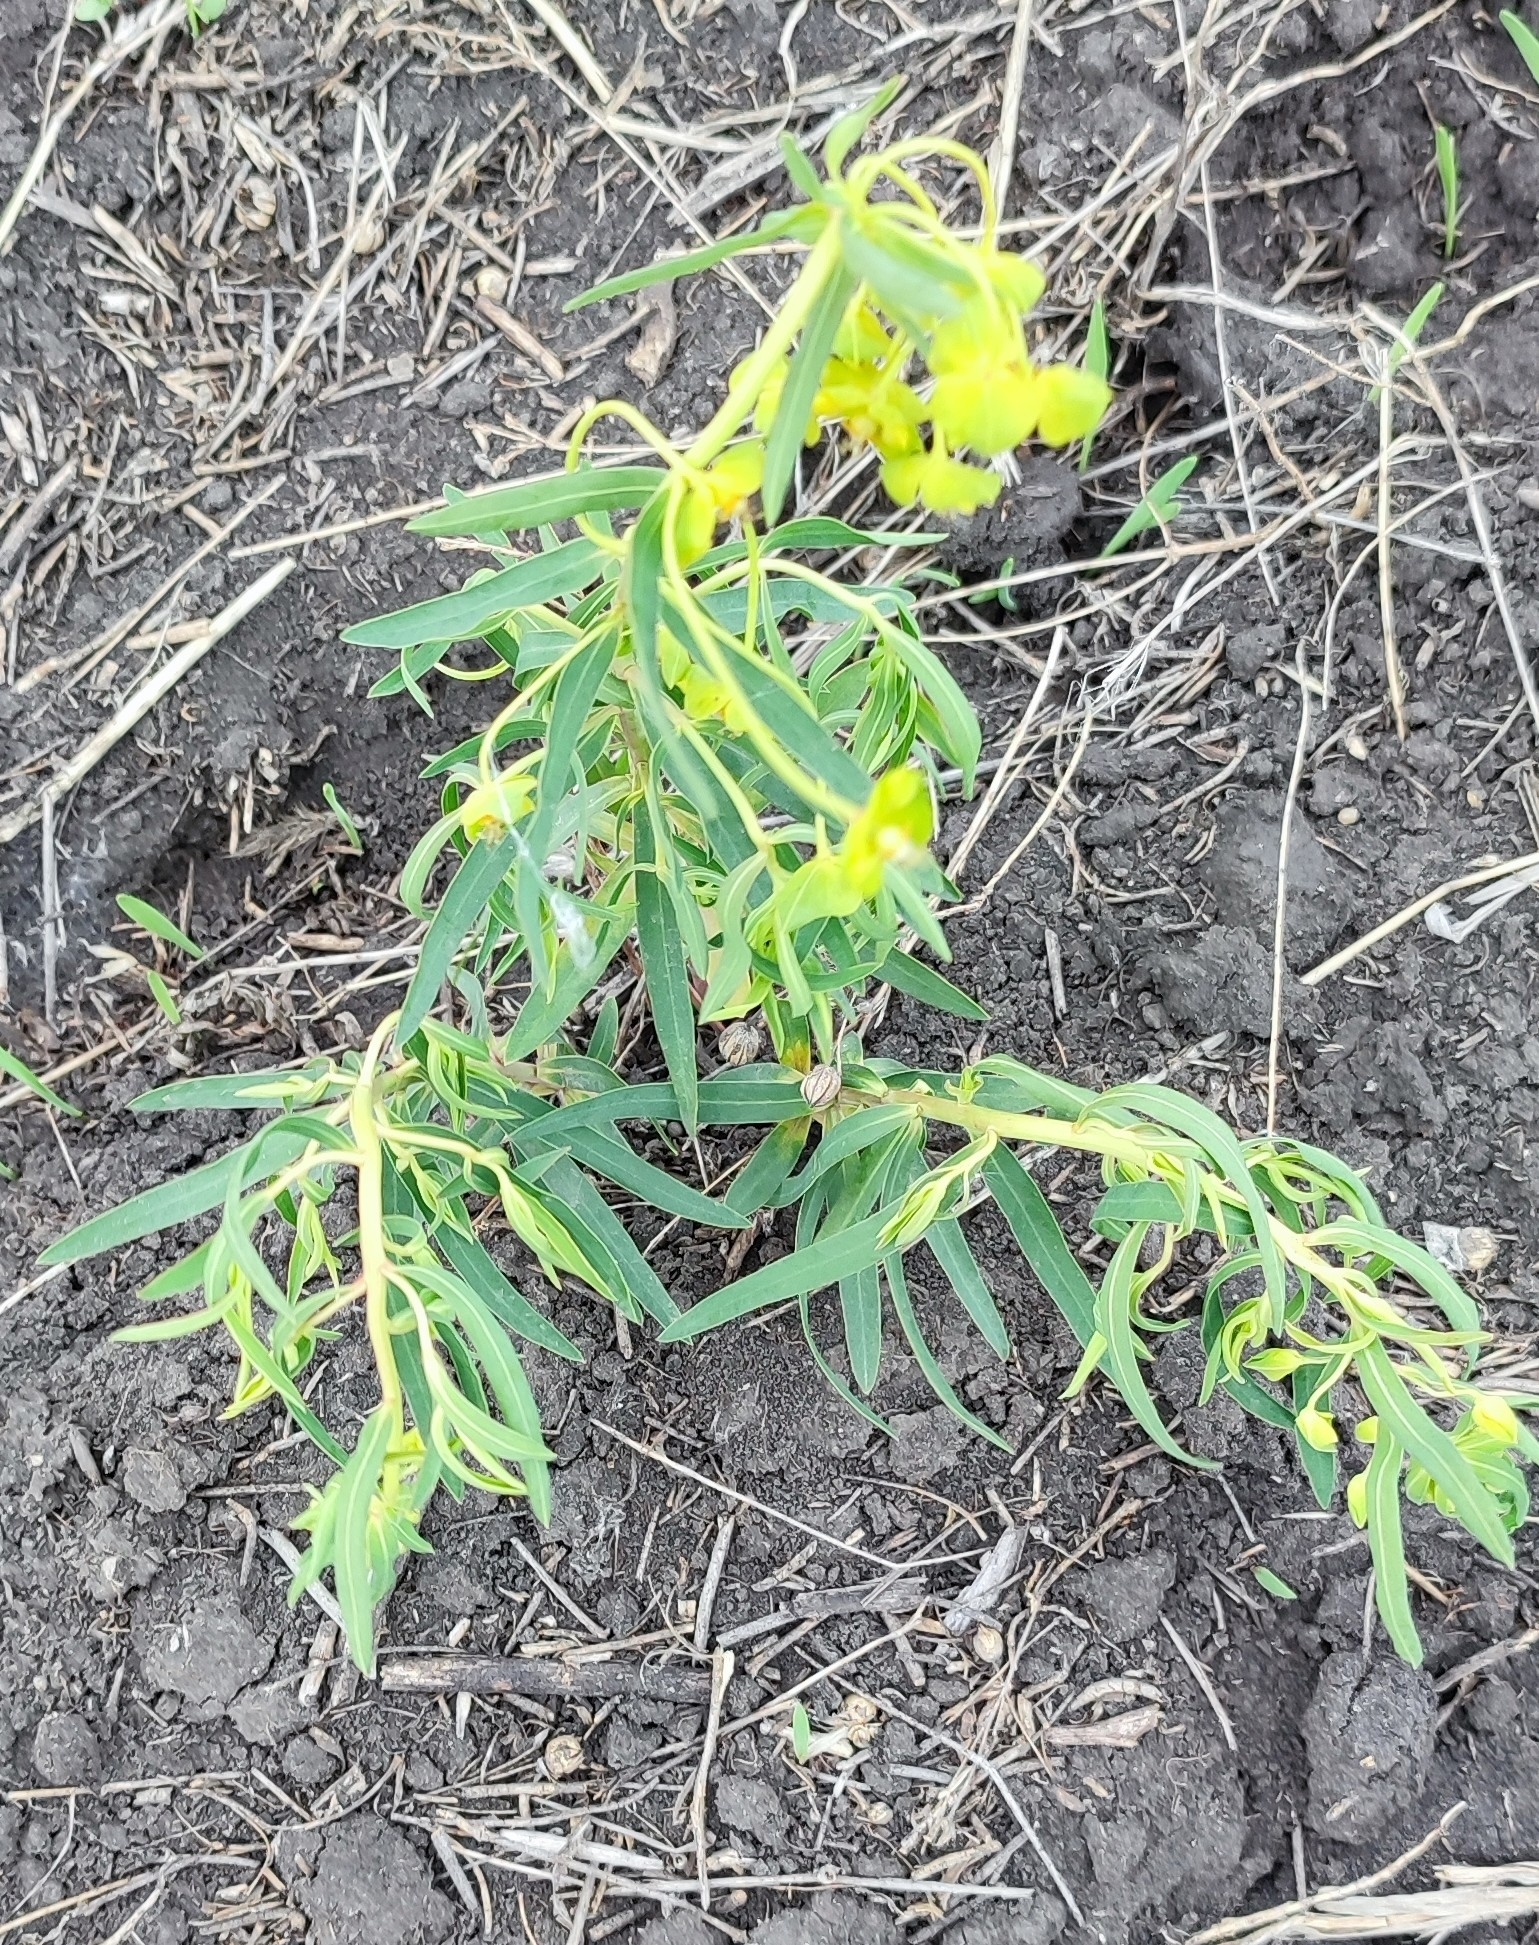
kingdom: Plantae
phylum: Tracheophyta
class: Magnoliopsida
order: Malpighiales
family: Euphorbiaceae
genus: Euphorbia
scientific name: Euphorbia virgata
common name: Leafy spurge
